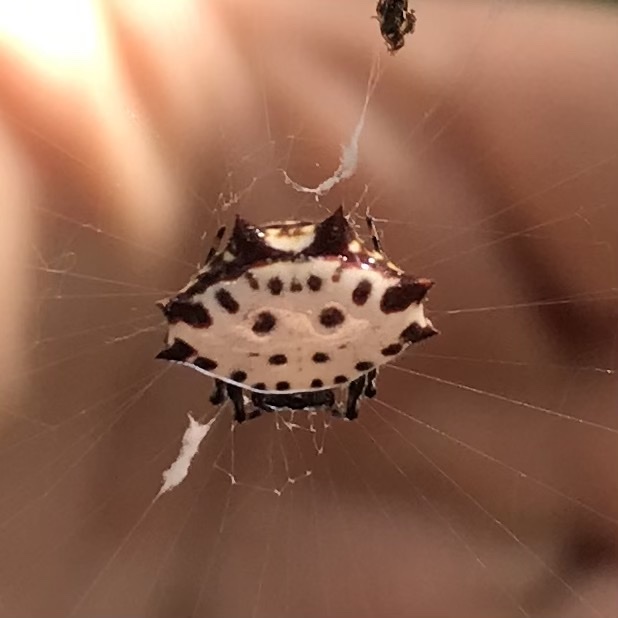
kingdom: Animalia
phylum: Arthropoda
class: Arachnida
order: Araneae
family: Araneidae
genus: Gasteracantha
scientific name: Gasteracantha cancriformis
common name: Orb weavers
